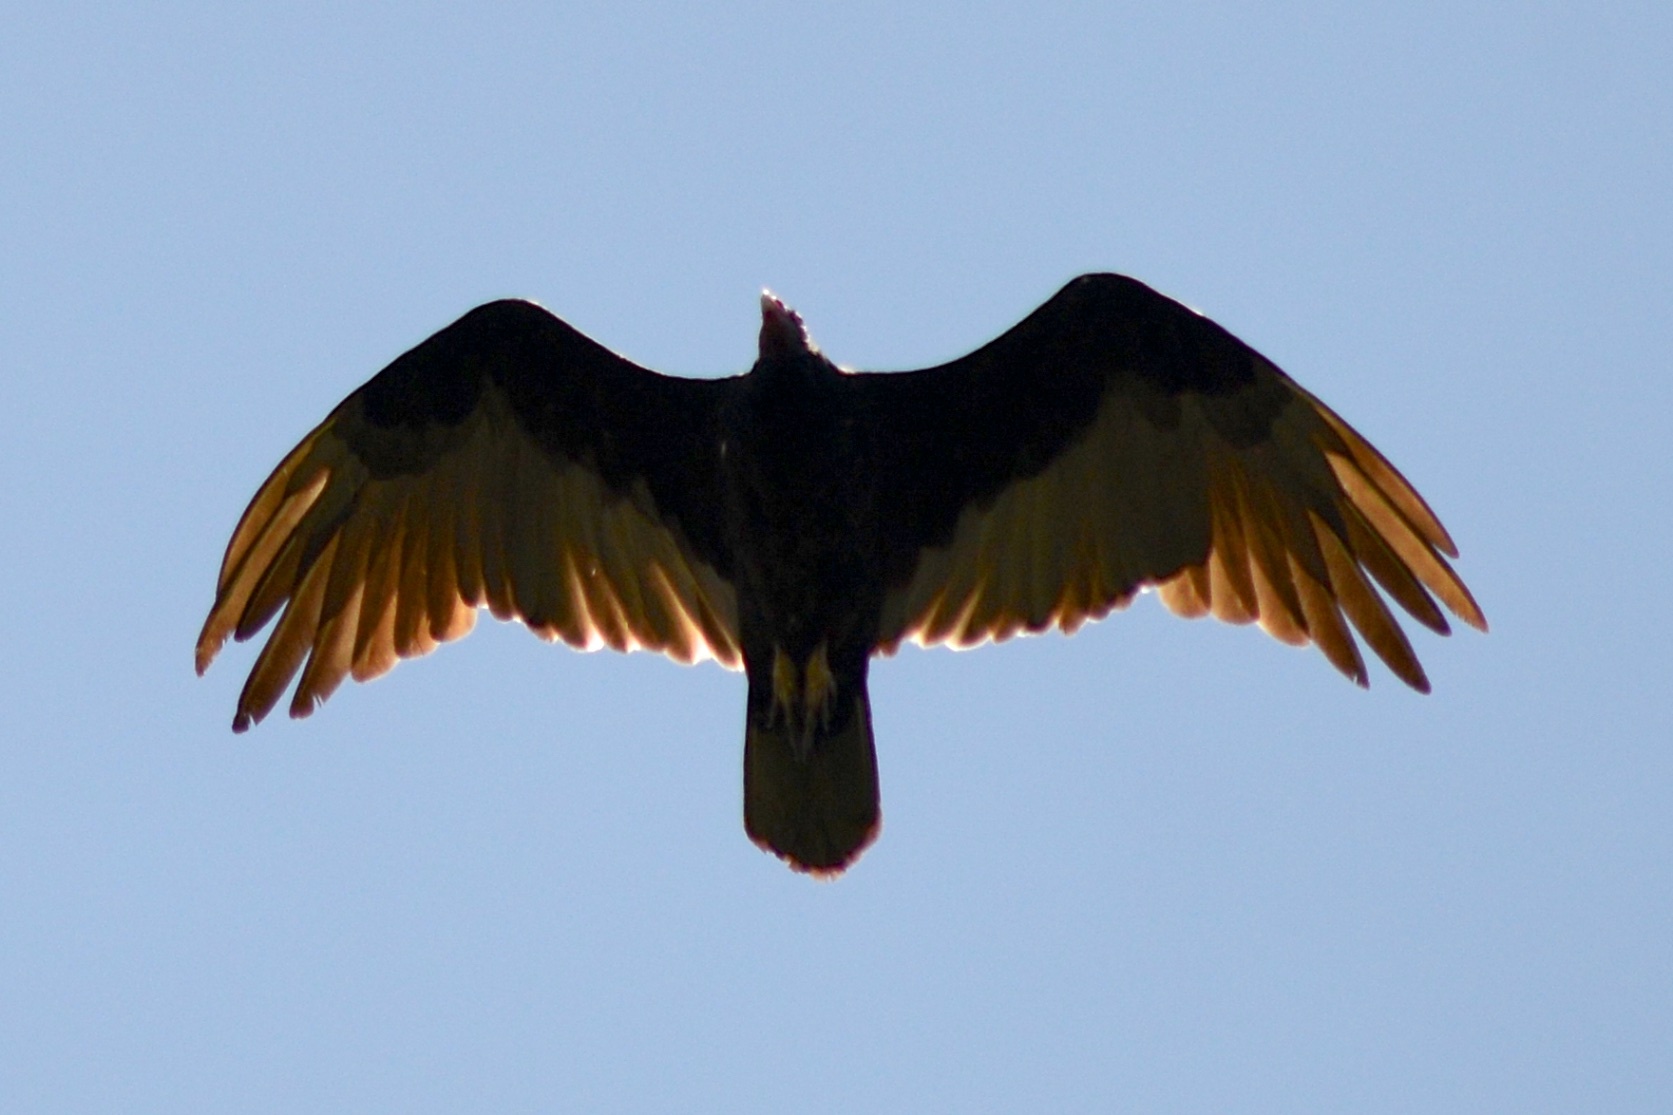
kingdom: Animalia
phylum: Chordata
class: Aves
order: Accipitriformes
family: Cathartidae
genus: Cathartes
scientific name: Cathartes aura
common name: Turkey vulture
